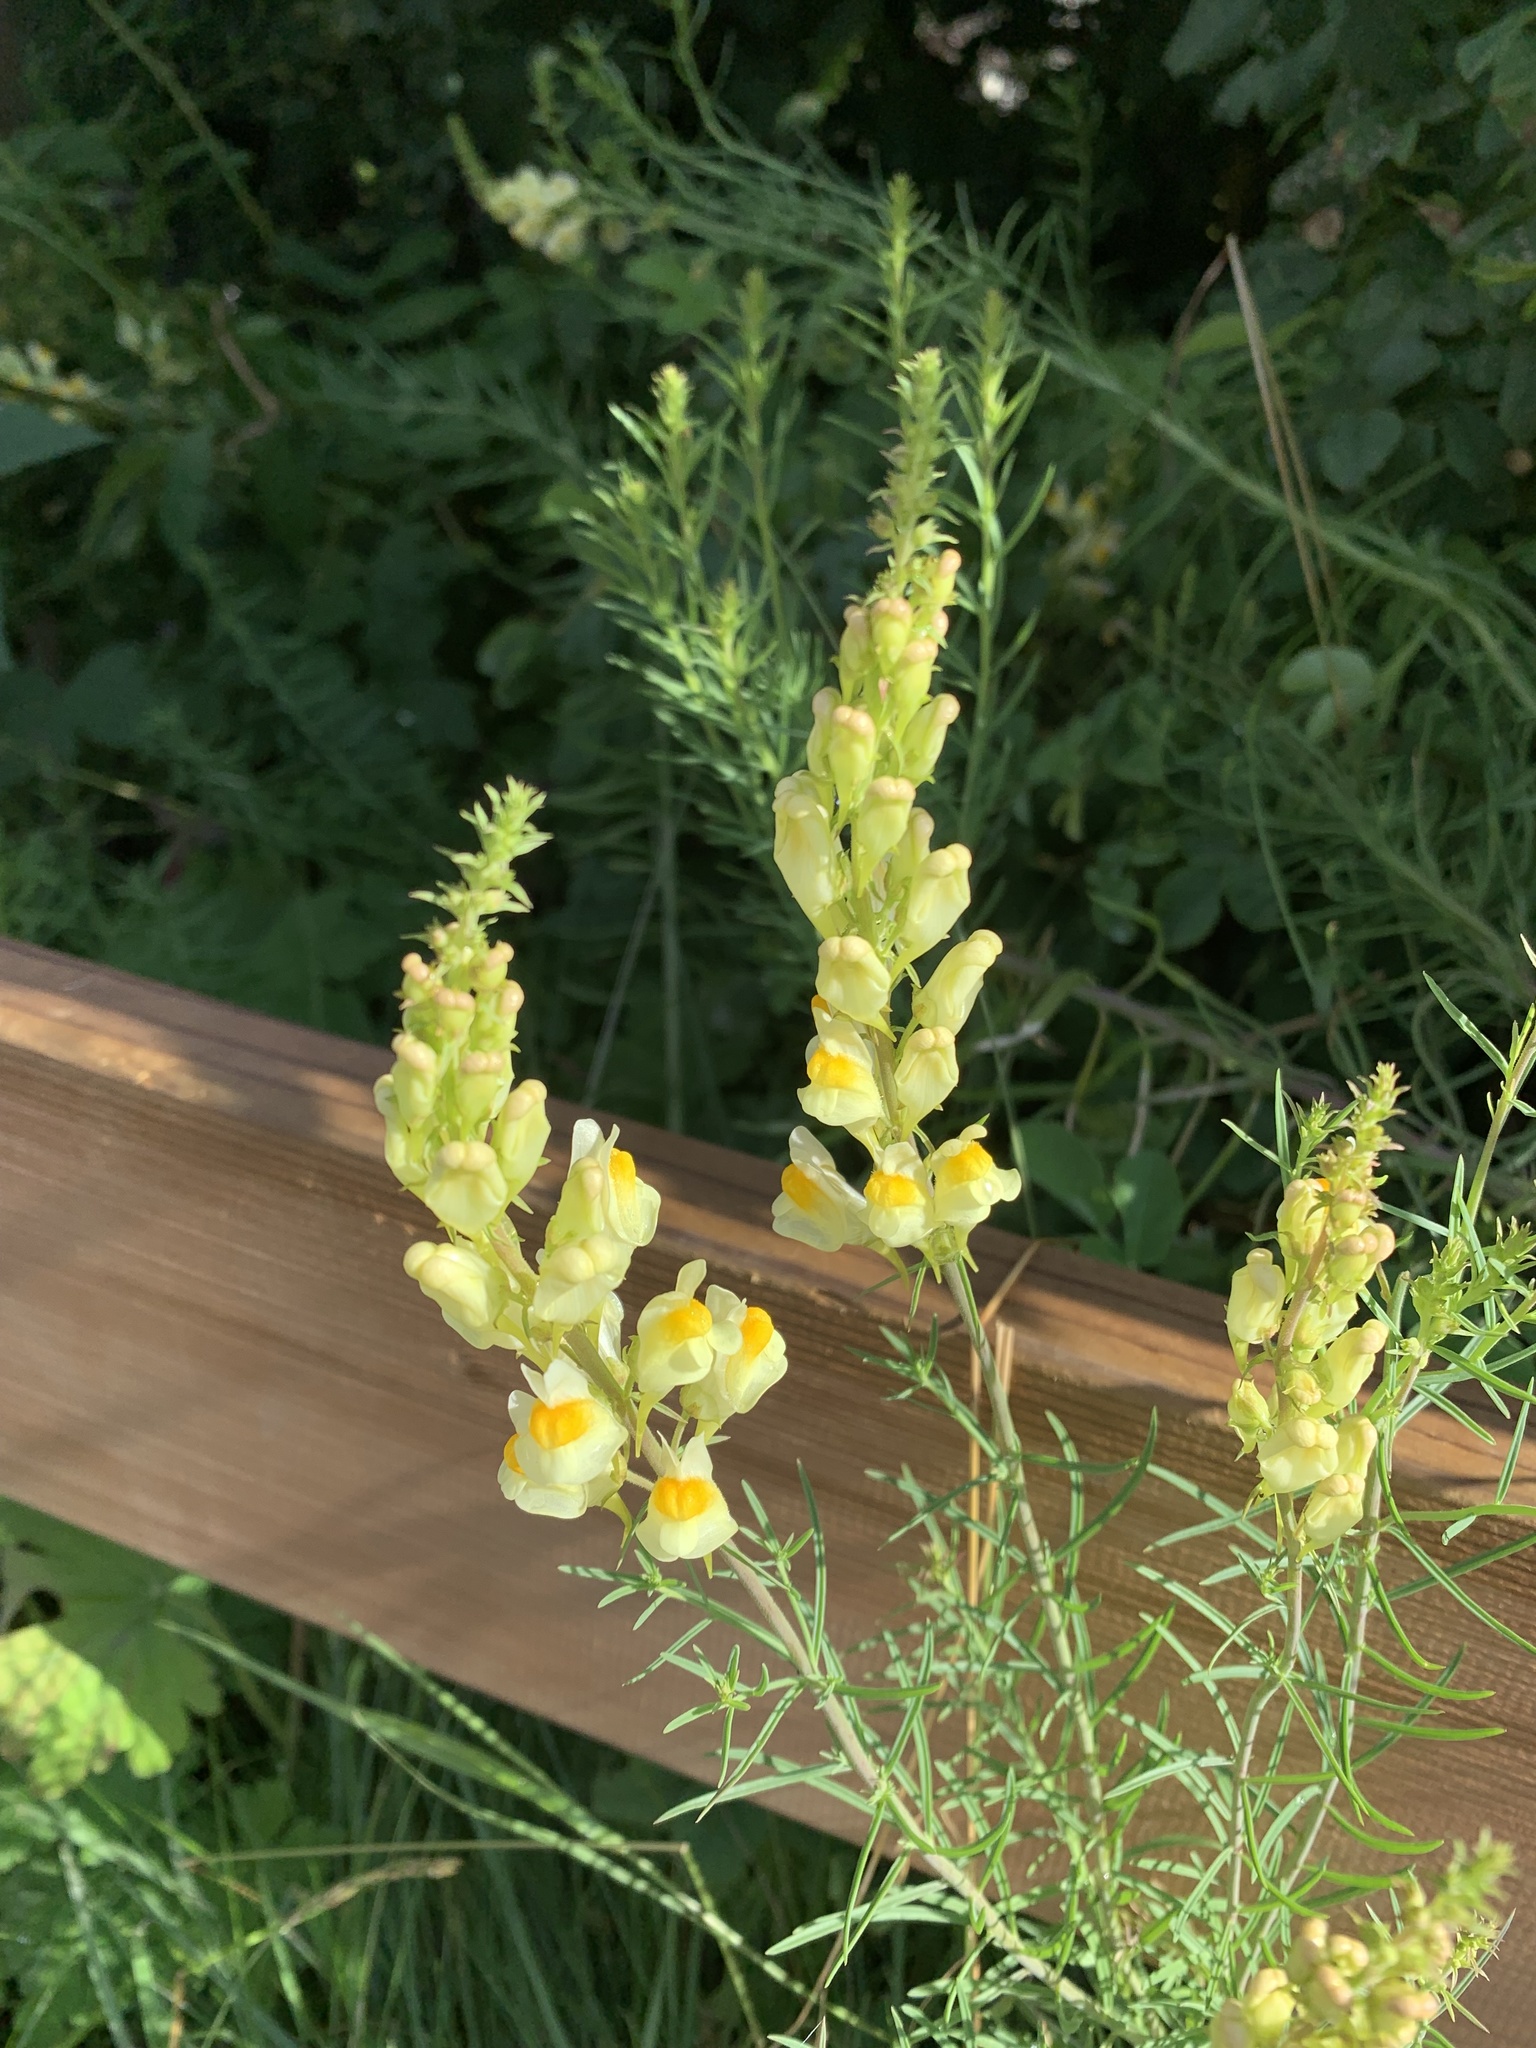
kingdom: Plantae
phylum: Tracheophyta
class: Magnoliopsida
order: Lamiales
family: Plantaginaceae
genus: Linaria
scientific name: Linaria vulgaris
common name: Butter and eggs
